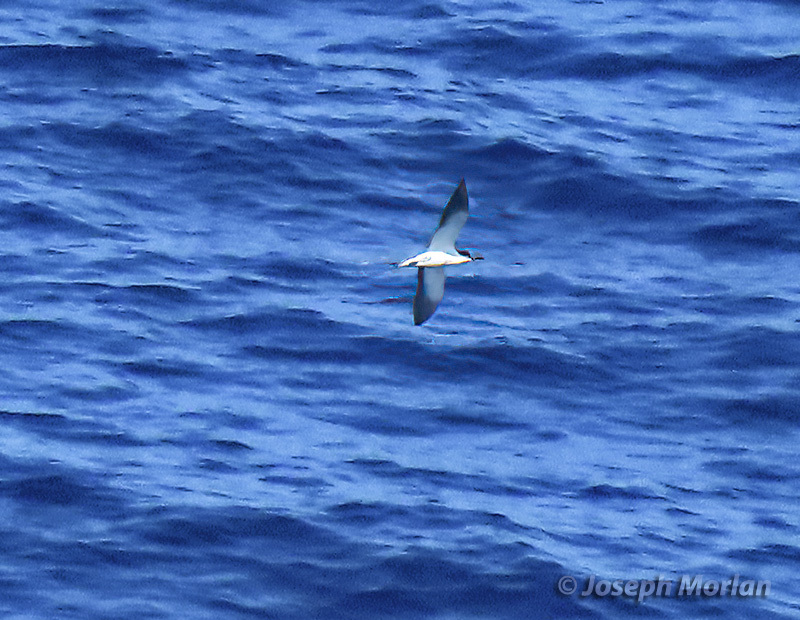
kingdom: Animalia
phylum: Chordata
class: Aves
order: Charadriiformes
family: Laridae
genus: Onychoprion
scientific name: Onychoprion fuscatus
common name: Sooty tern
